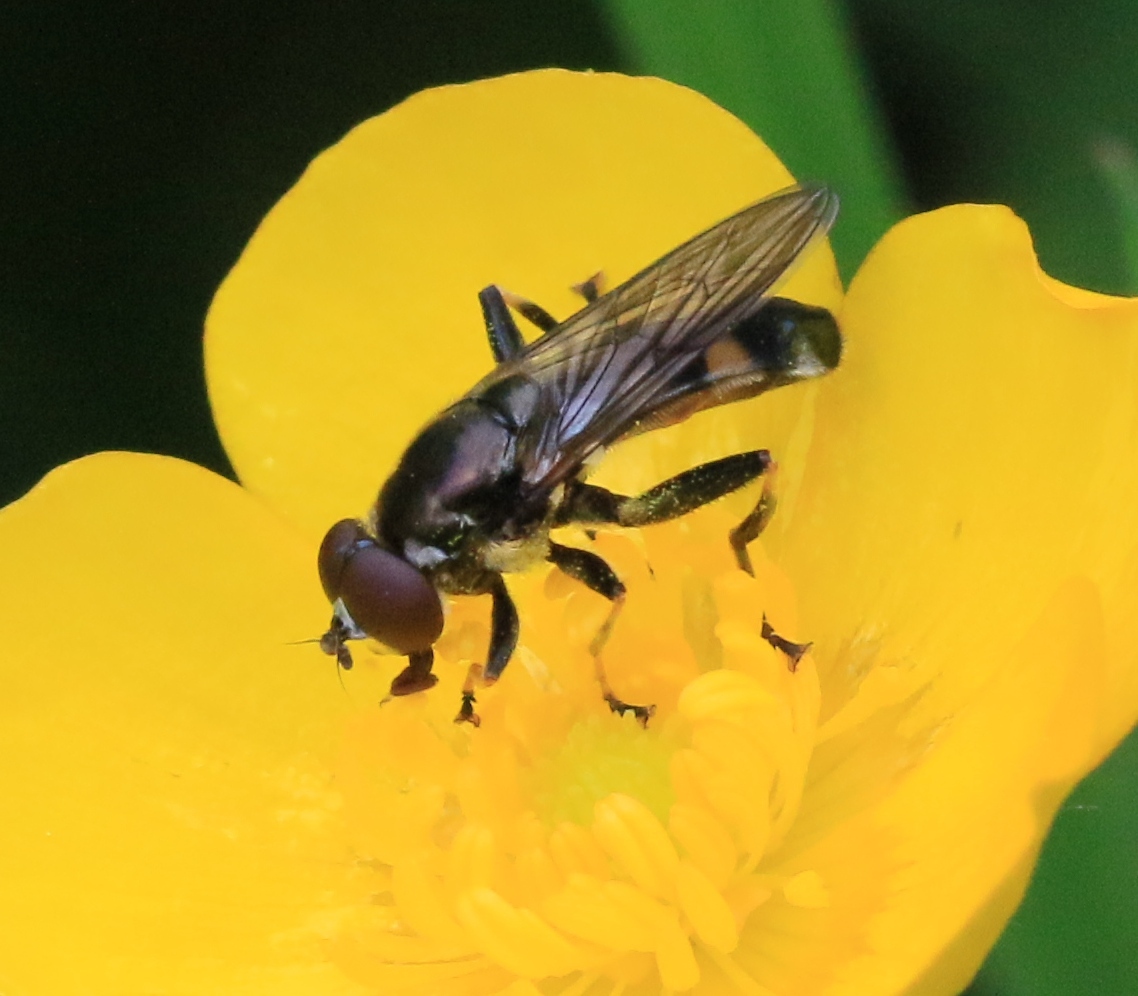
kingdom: Animalia
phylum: Arthropoda
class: Insecta
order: Diptera
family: Syrphidae
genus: Xylota
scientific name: Xylota jakutorum
